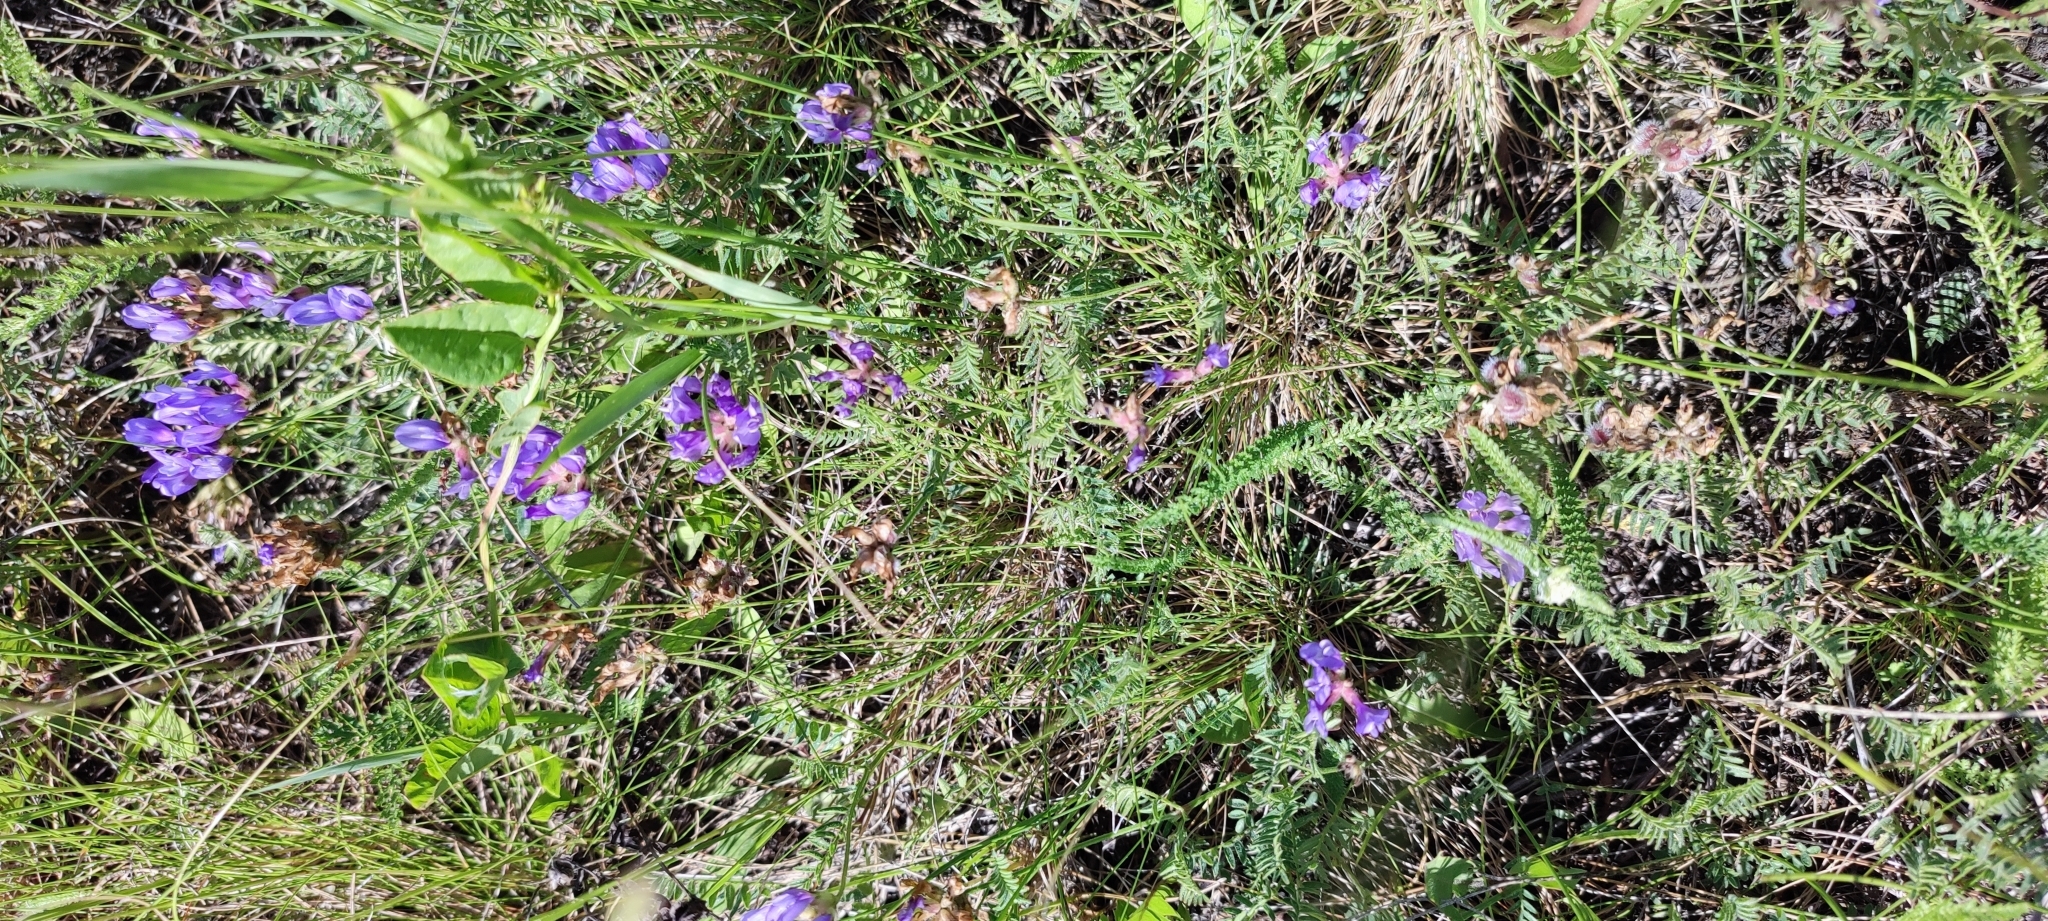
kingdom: Plantae
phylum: Tracheophyta
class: Magnoliopsida
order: Fabales
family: Fabaceae
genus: Astragalus
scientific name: Astragalus danicus
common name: Purple milk-vetch
